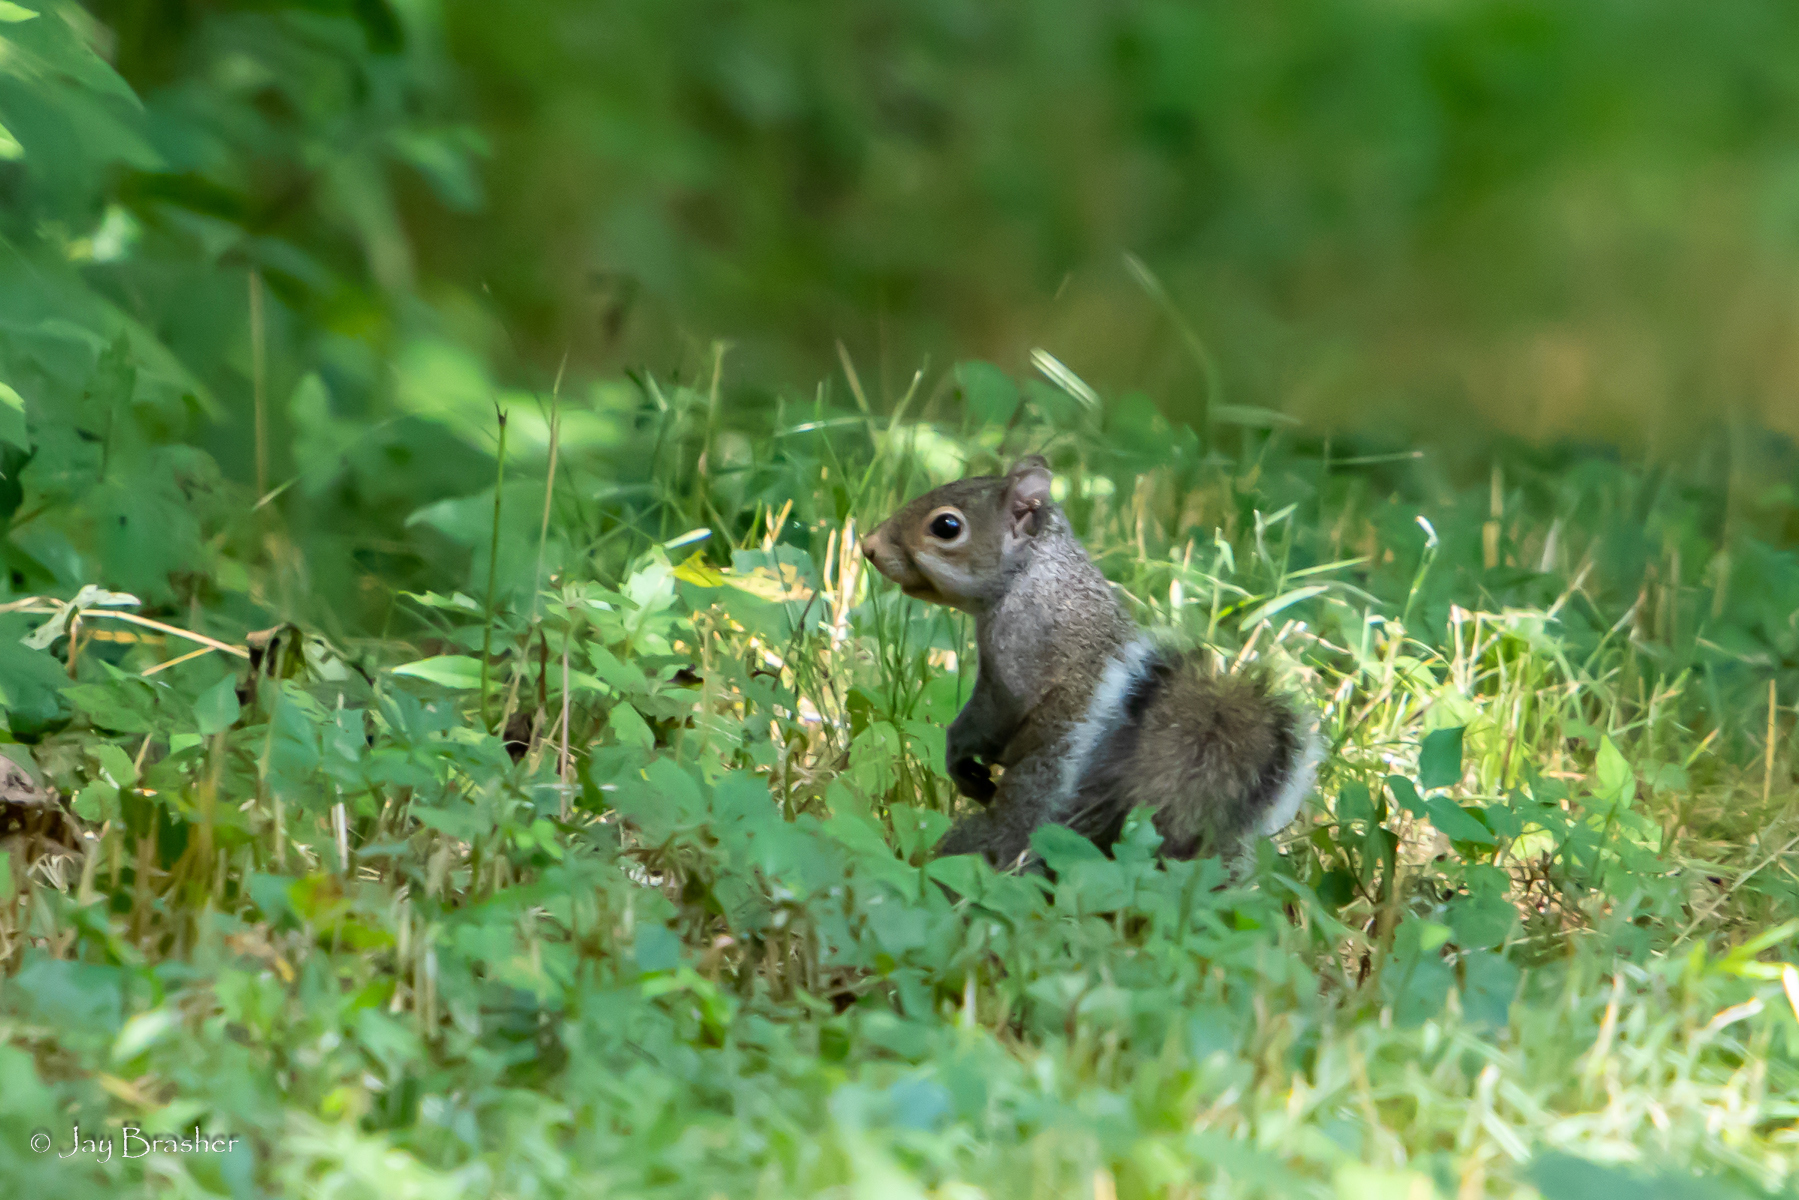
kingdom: Animalia
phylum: Chordata
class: Mammalia
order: Rodentia
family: Sciuridae
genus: Sciurus
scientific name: Sciurus carolinensis
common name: Eastern gray squirrel
